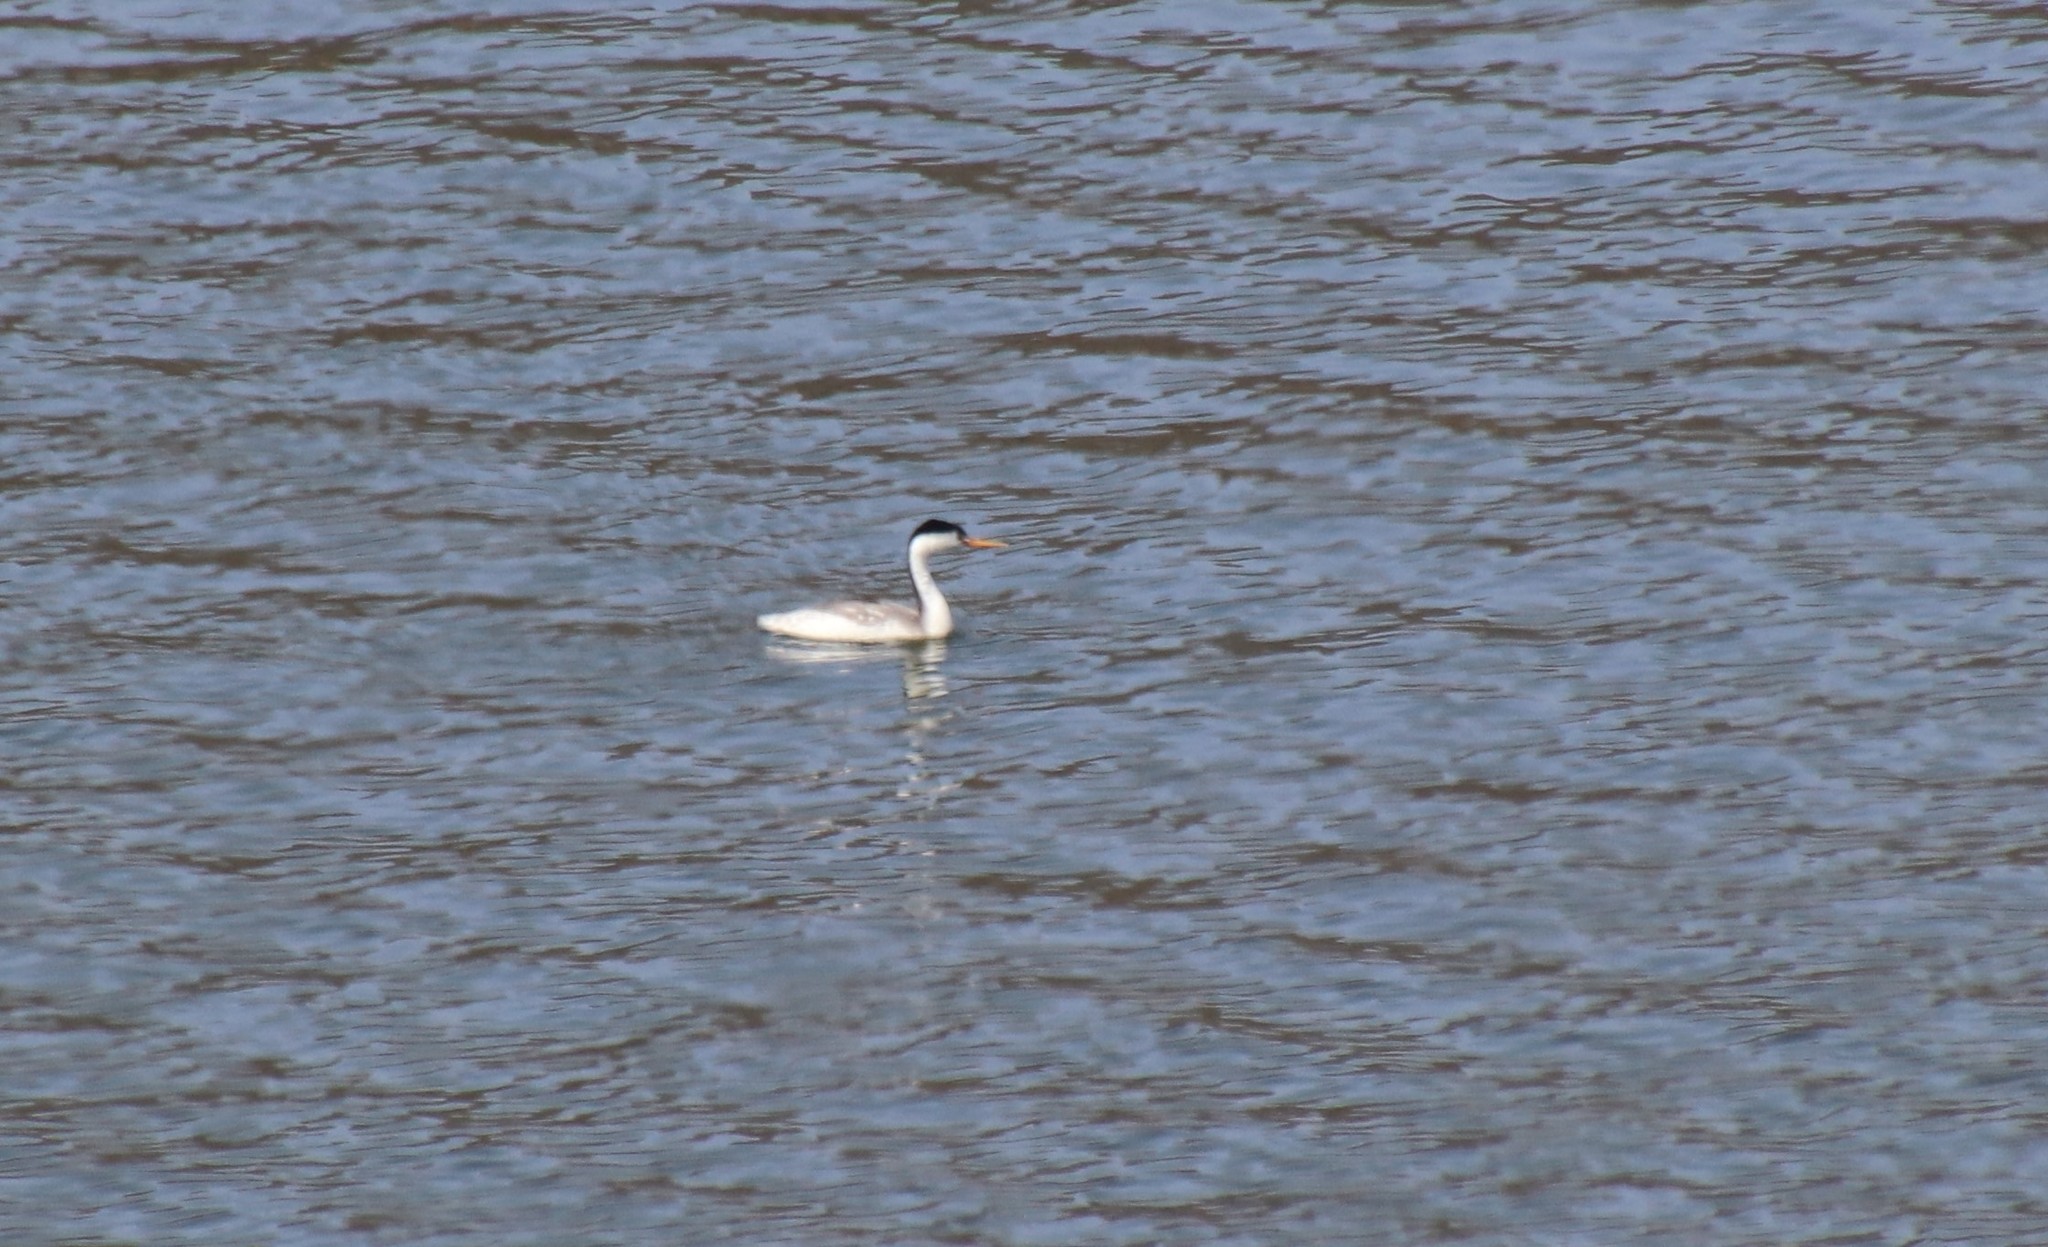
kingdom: Animalia
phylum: Chordata
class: Aves
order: Podicipediformes
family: Podicipedidae
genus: Aechmophorus
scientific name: Aechmophorus clarkii
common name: Clark's grebe
